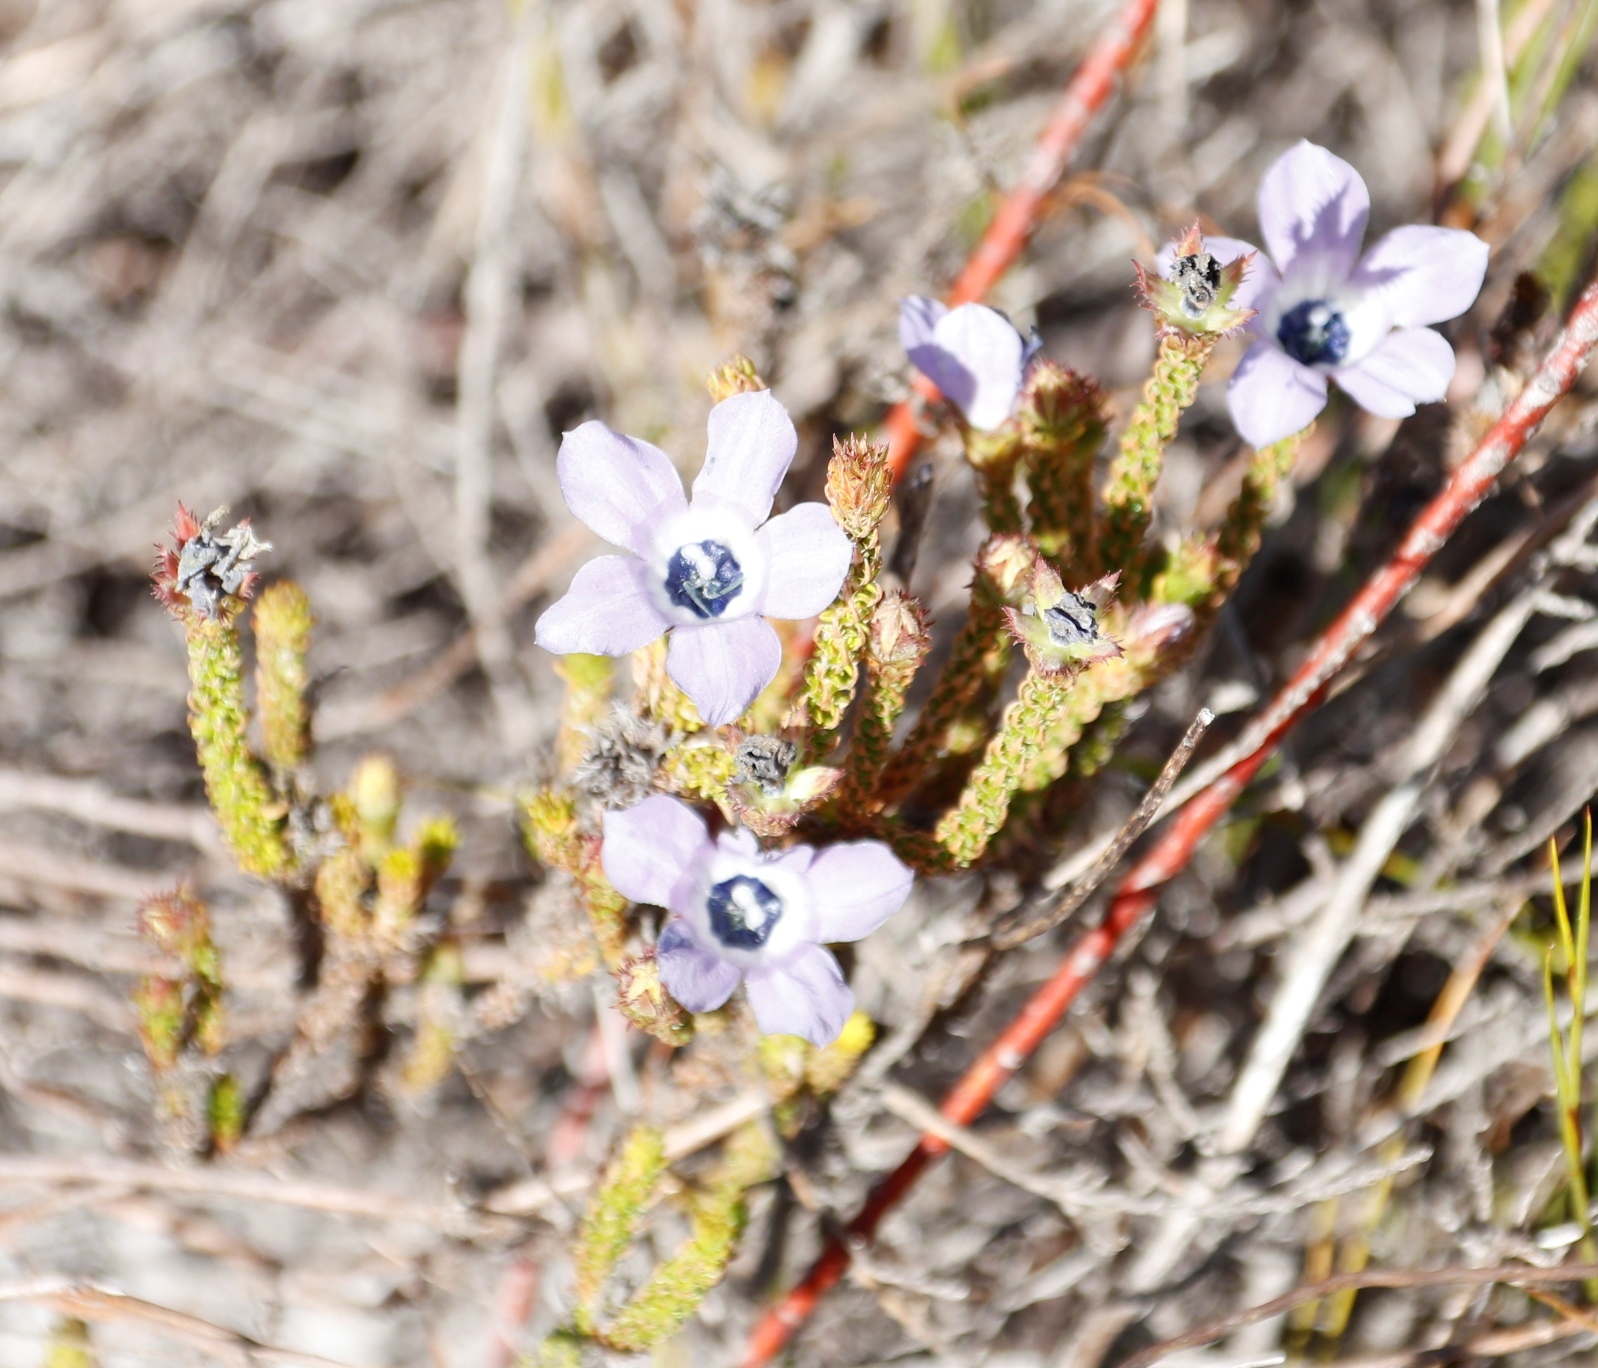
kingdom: Plantae
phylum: Tracheophyta
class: Magnoliopsida
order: Asterales
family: Campanulaceae
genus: Roella
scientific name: Roella triflora
